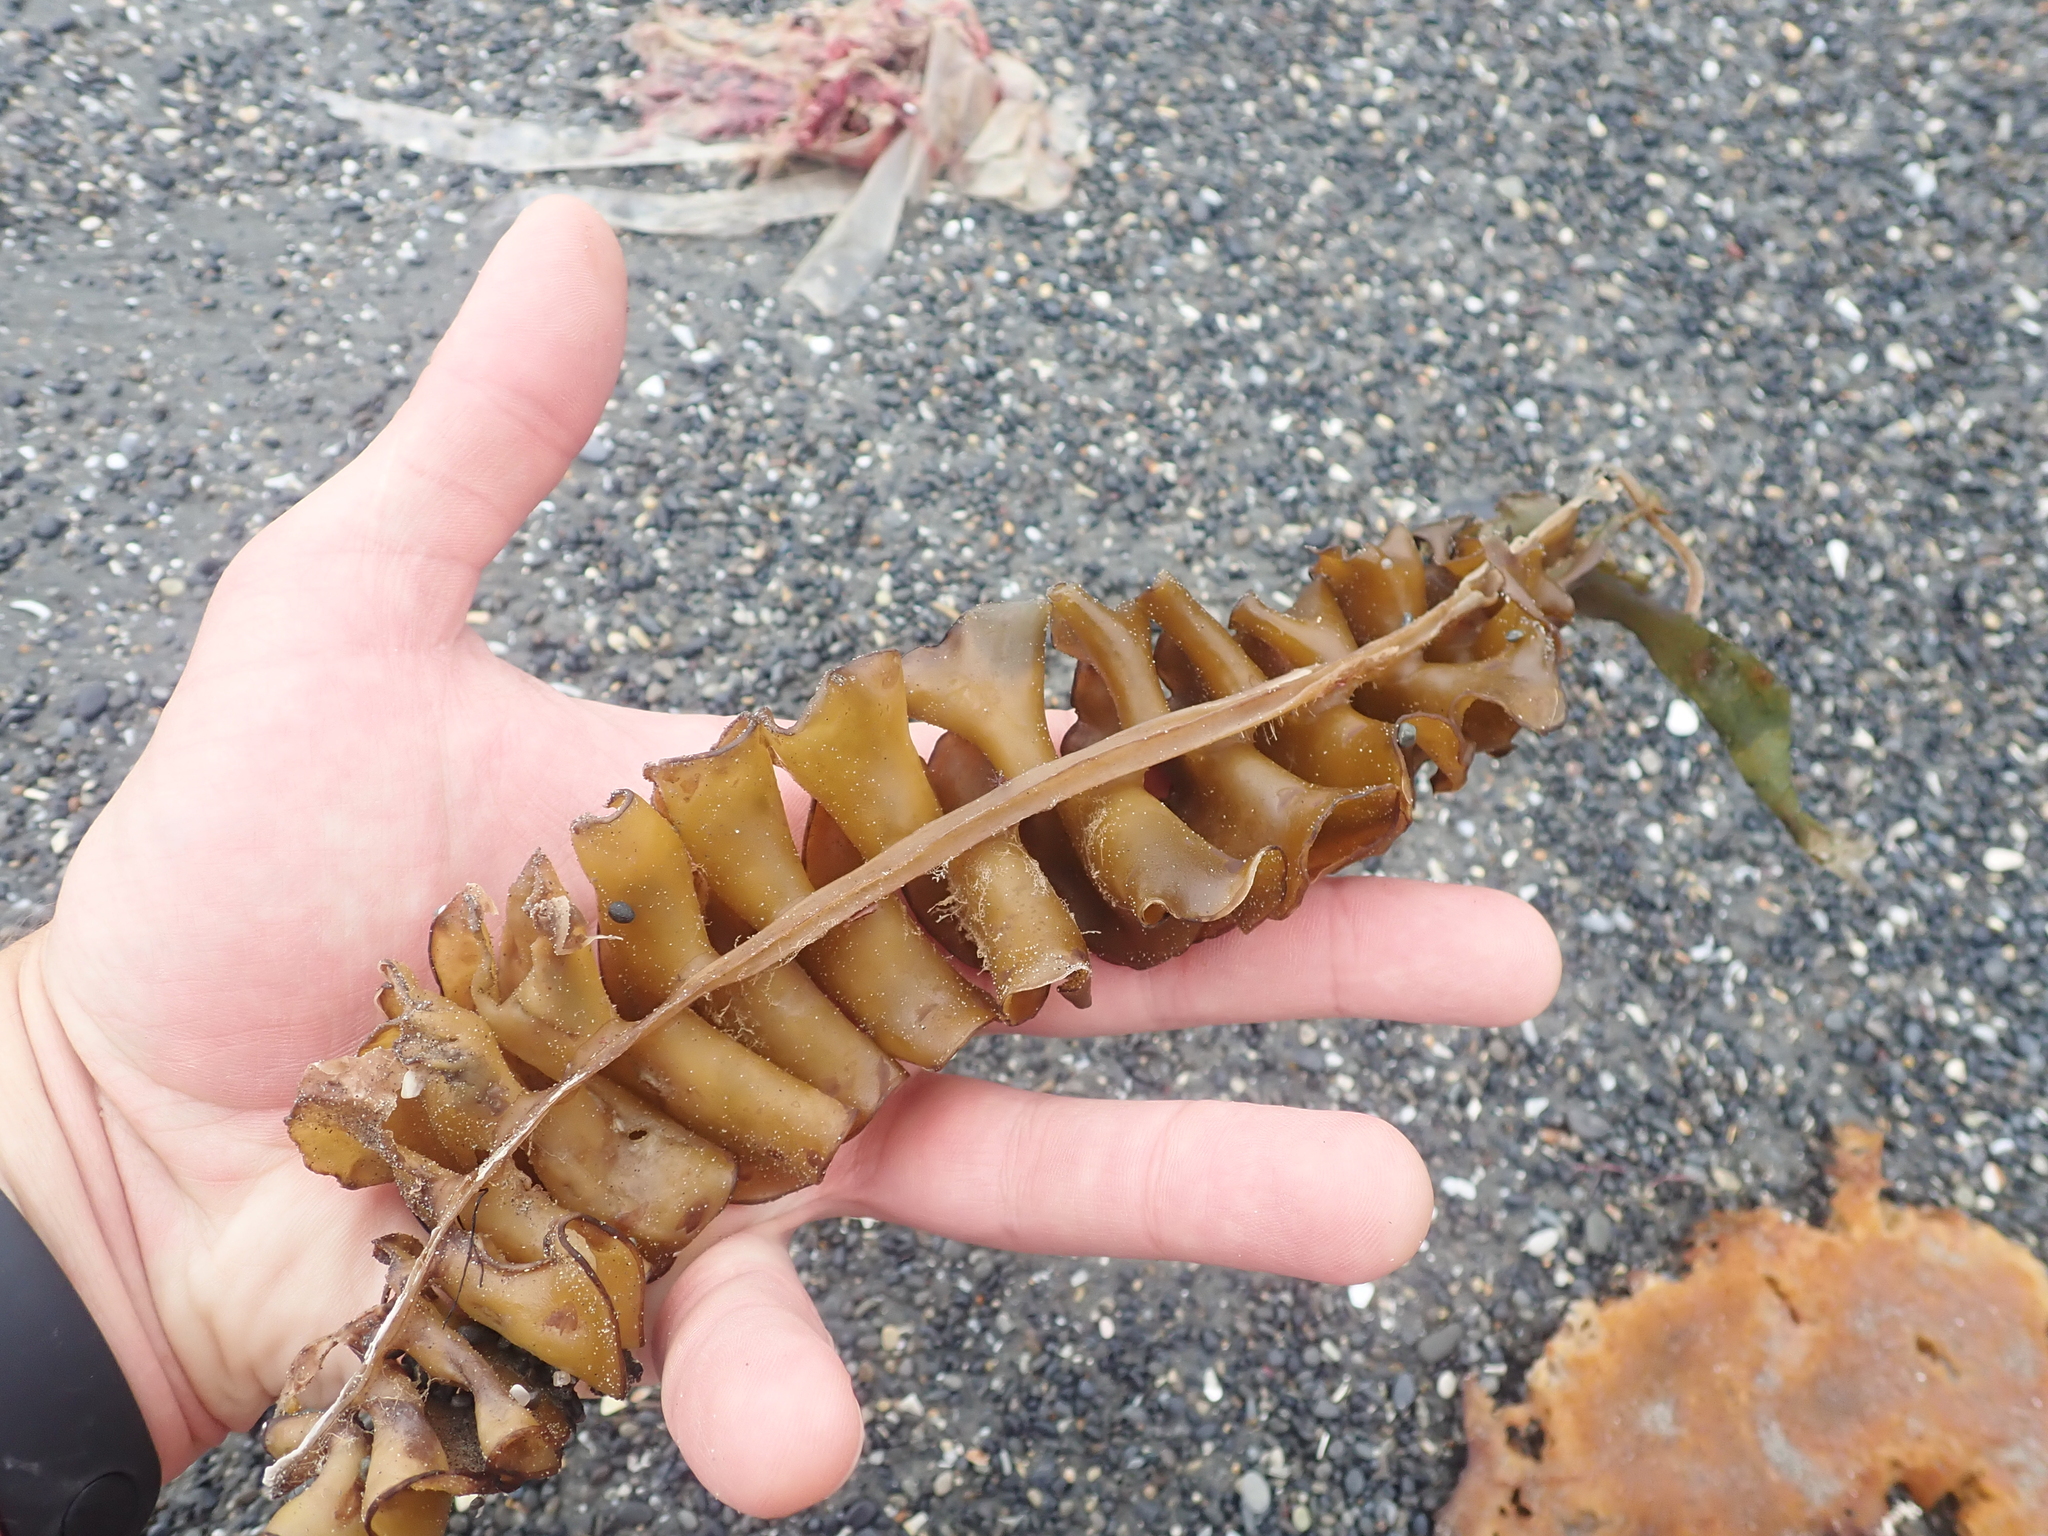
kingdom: Chromista
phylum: Ochrophyta
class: Phaeophyceae
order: Laminariales
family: Alariaceae
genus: Undaria
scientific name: Undaria pinnatifida
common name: Asian kelp
